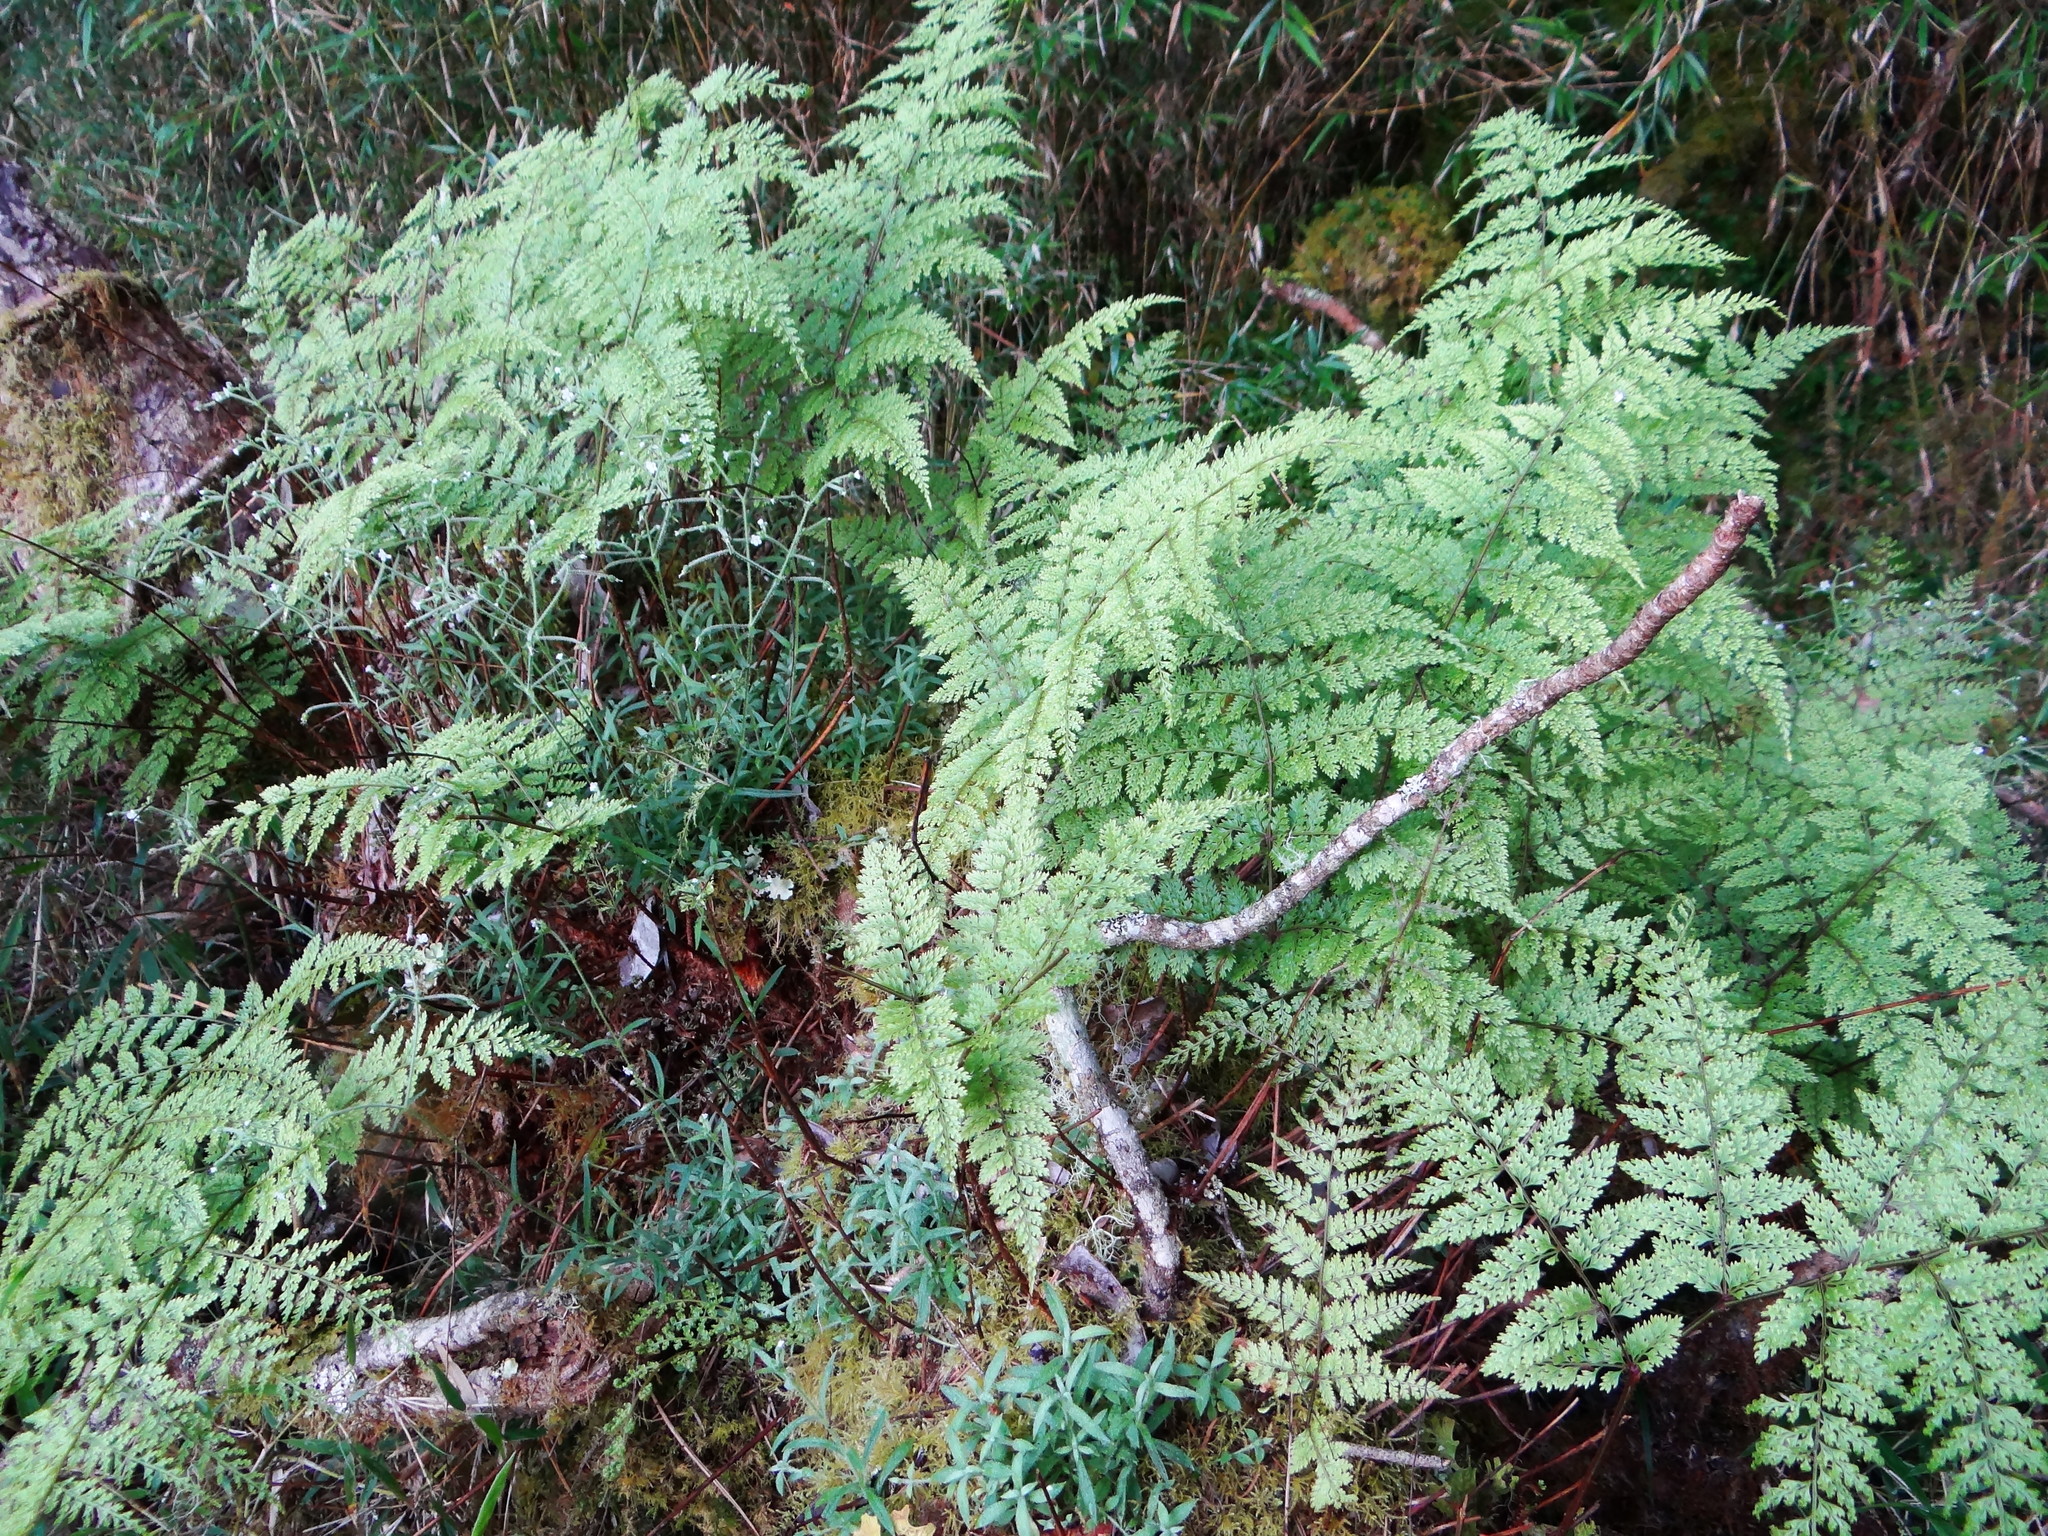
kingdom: Plantae
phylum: Tracheophyta
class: Polypodiopsida
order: Polypodiales
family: Davalliaceae
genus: Davallia
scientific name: Davallia perdurans
